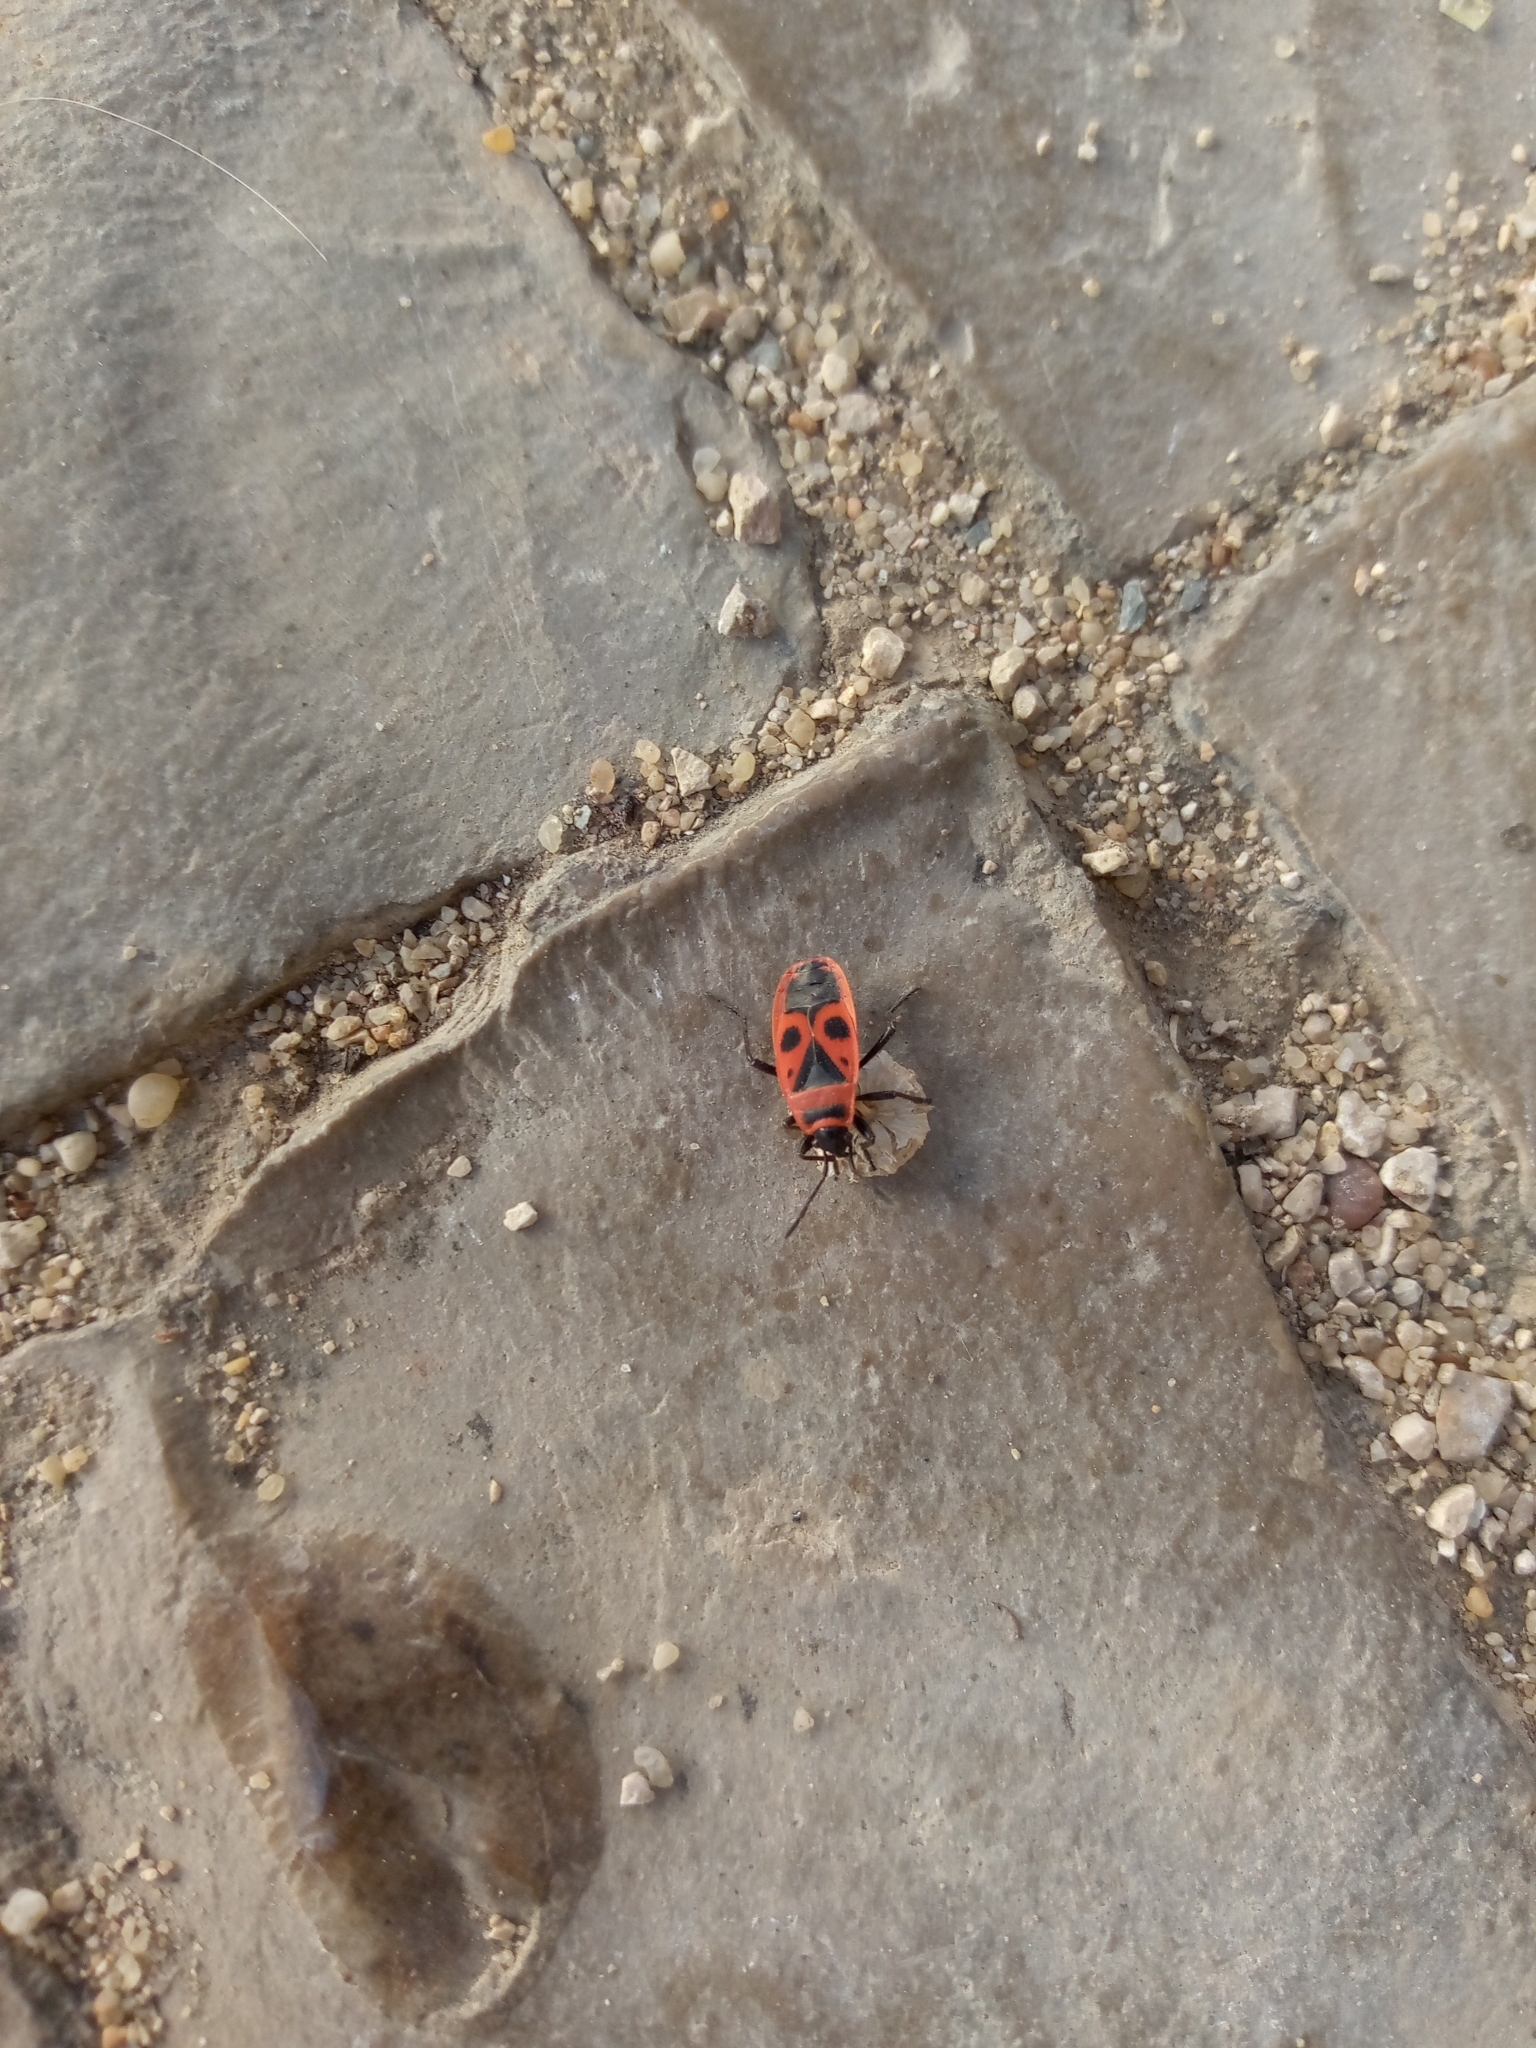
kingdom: Animalia
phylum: Arthropoda
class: Insecta
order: Hemiptera
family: Pyrrhocoridae
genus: Pyrrhocoris
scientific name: Pyrrhocoris apterus
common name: Firebug
